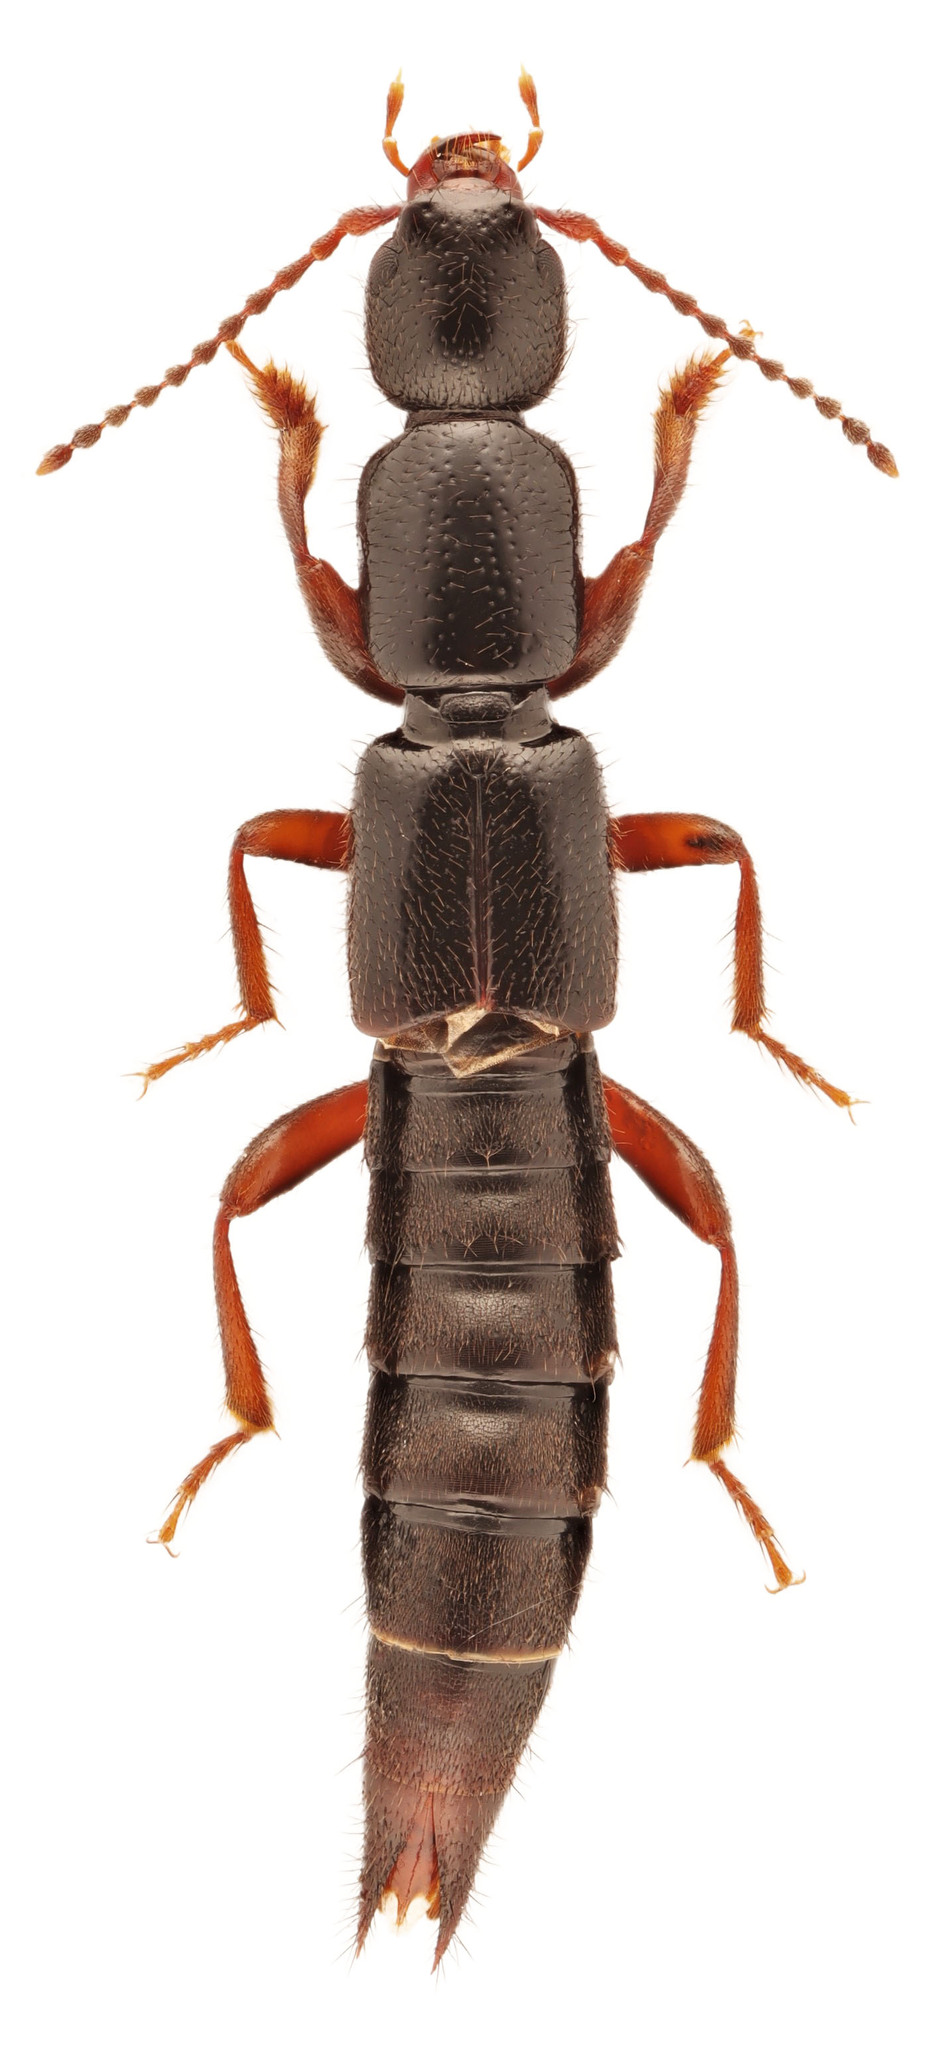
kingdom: Animalia
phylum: Arthropoda
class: Insecta
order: Coleoptera
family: Staphylinidae
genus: Lathrobium
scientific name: Lathrobium sparsellum
